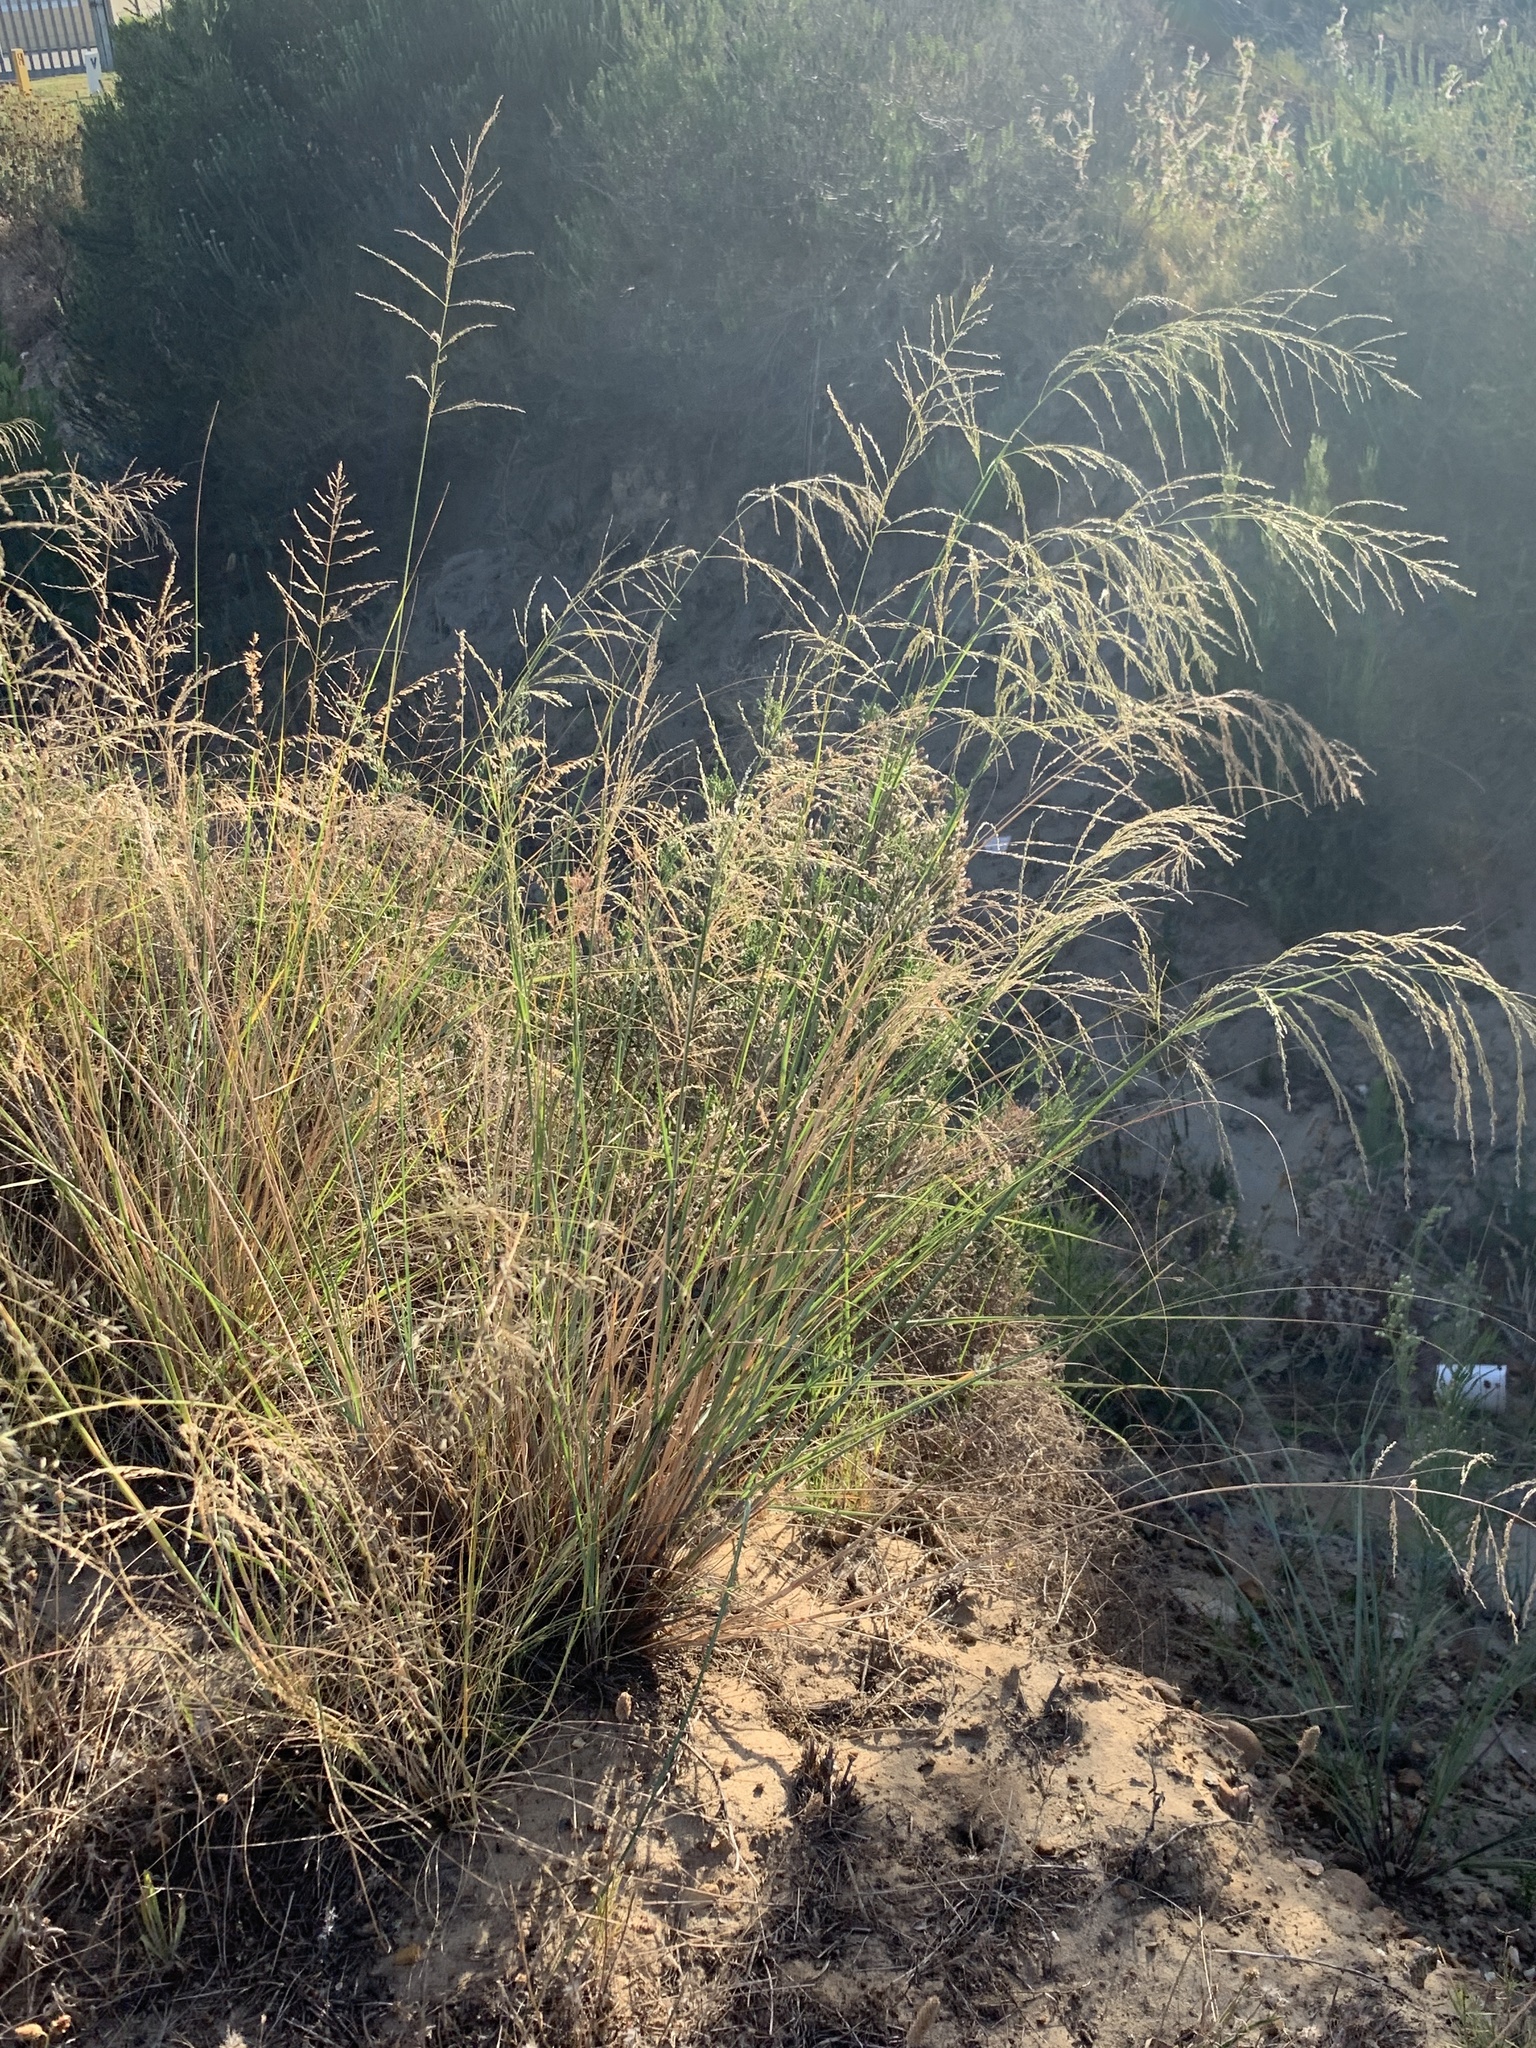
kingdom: Plantae
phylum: Tracheophyta
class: Liliopsida
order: Poales
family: Poaceae
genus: Eragrostis
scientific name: Eragrostis curvula
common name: African love-grass
